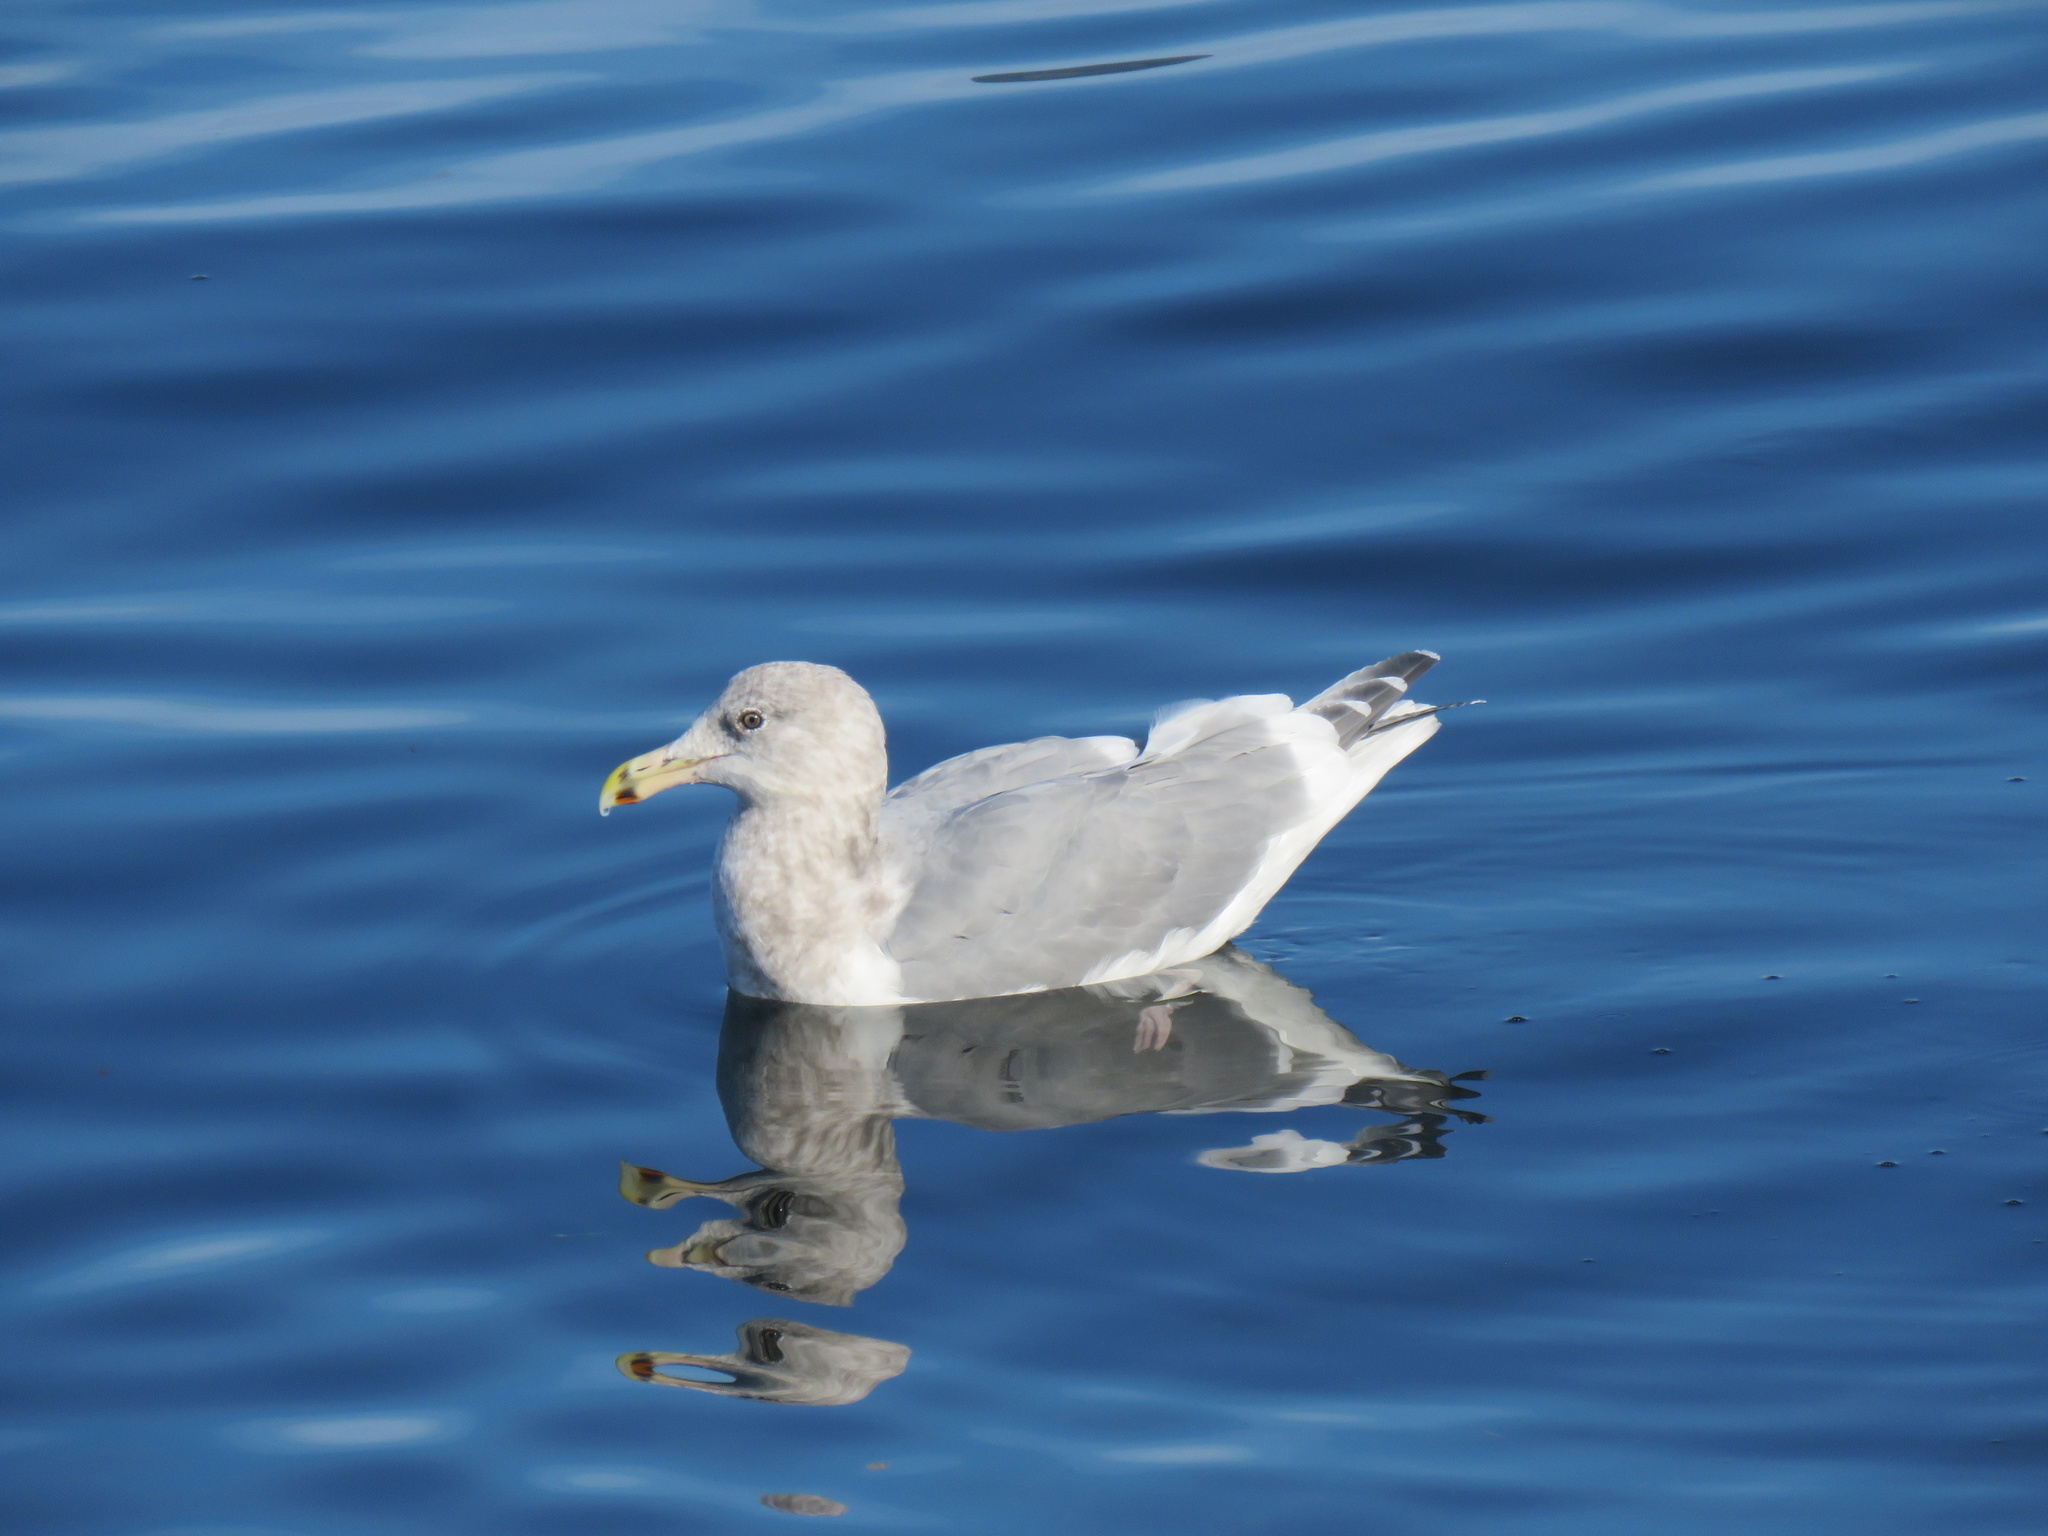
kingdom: Animalia
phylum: Chordata
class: Aves
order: Charadriiformes
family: Laridae
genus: Larus
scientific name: Larus
